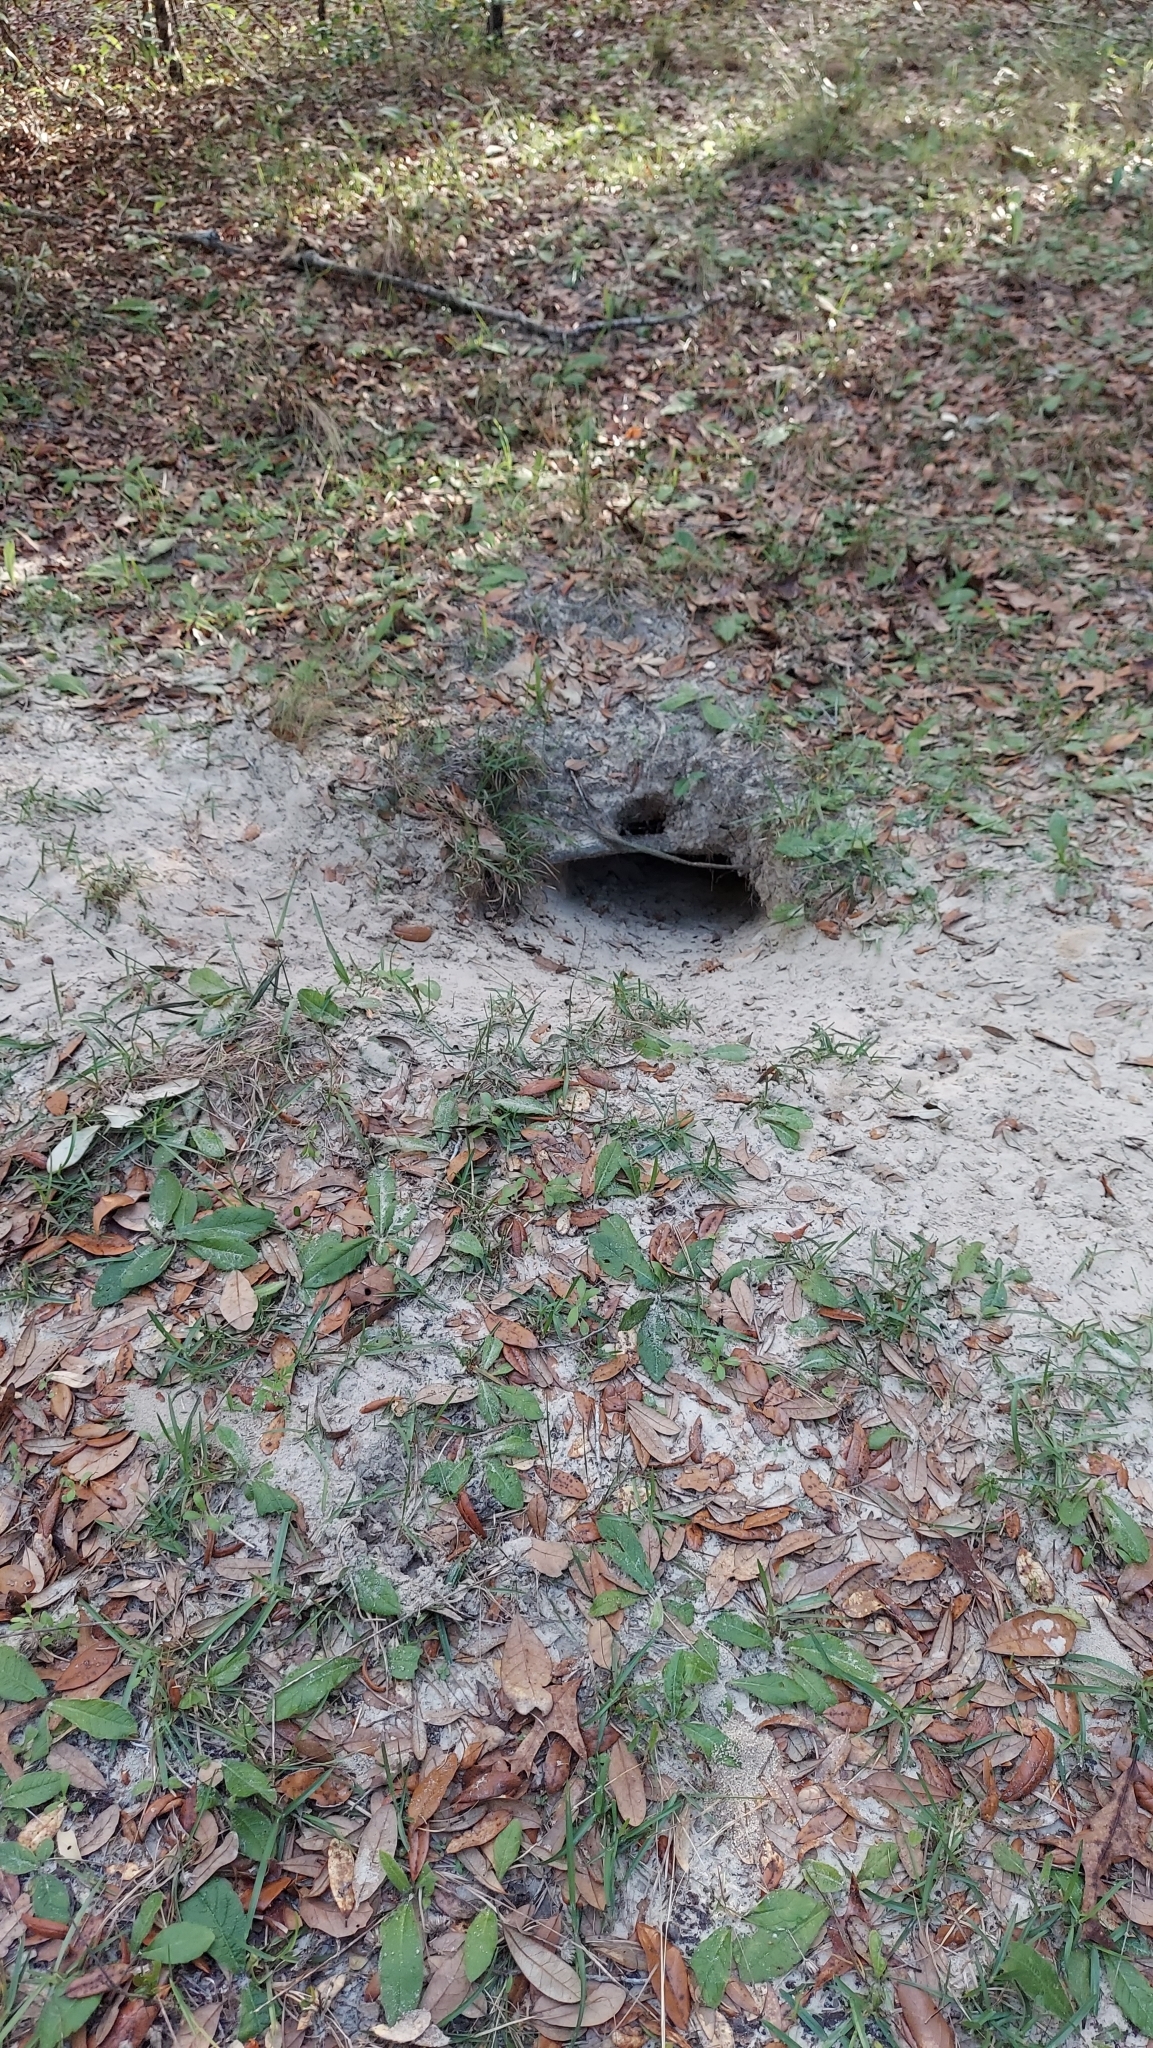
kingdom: Animalia
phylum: Chordata
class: Testudines
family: Testudinidae
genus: Gopherus
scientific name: Gopherus polyphemus
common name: Florida gopher tortoise
